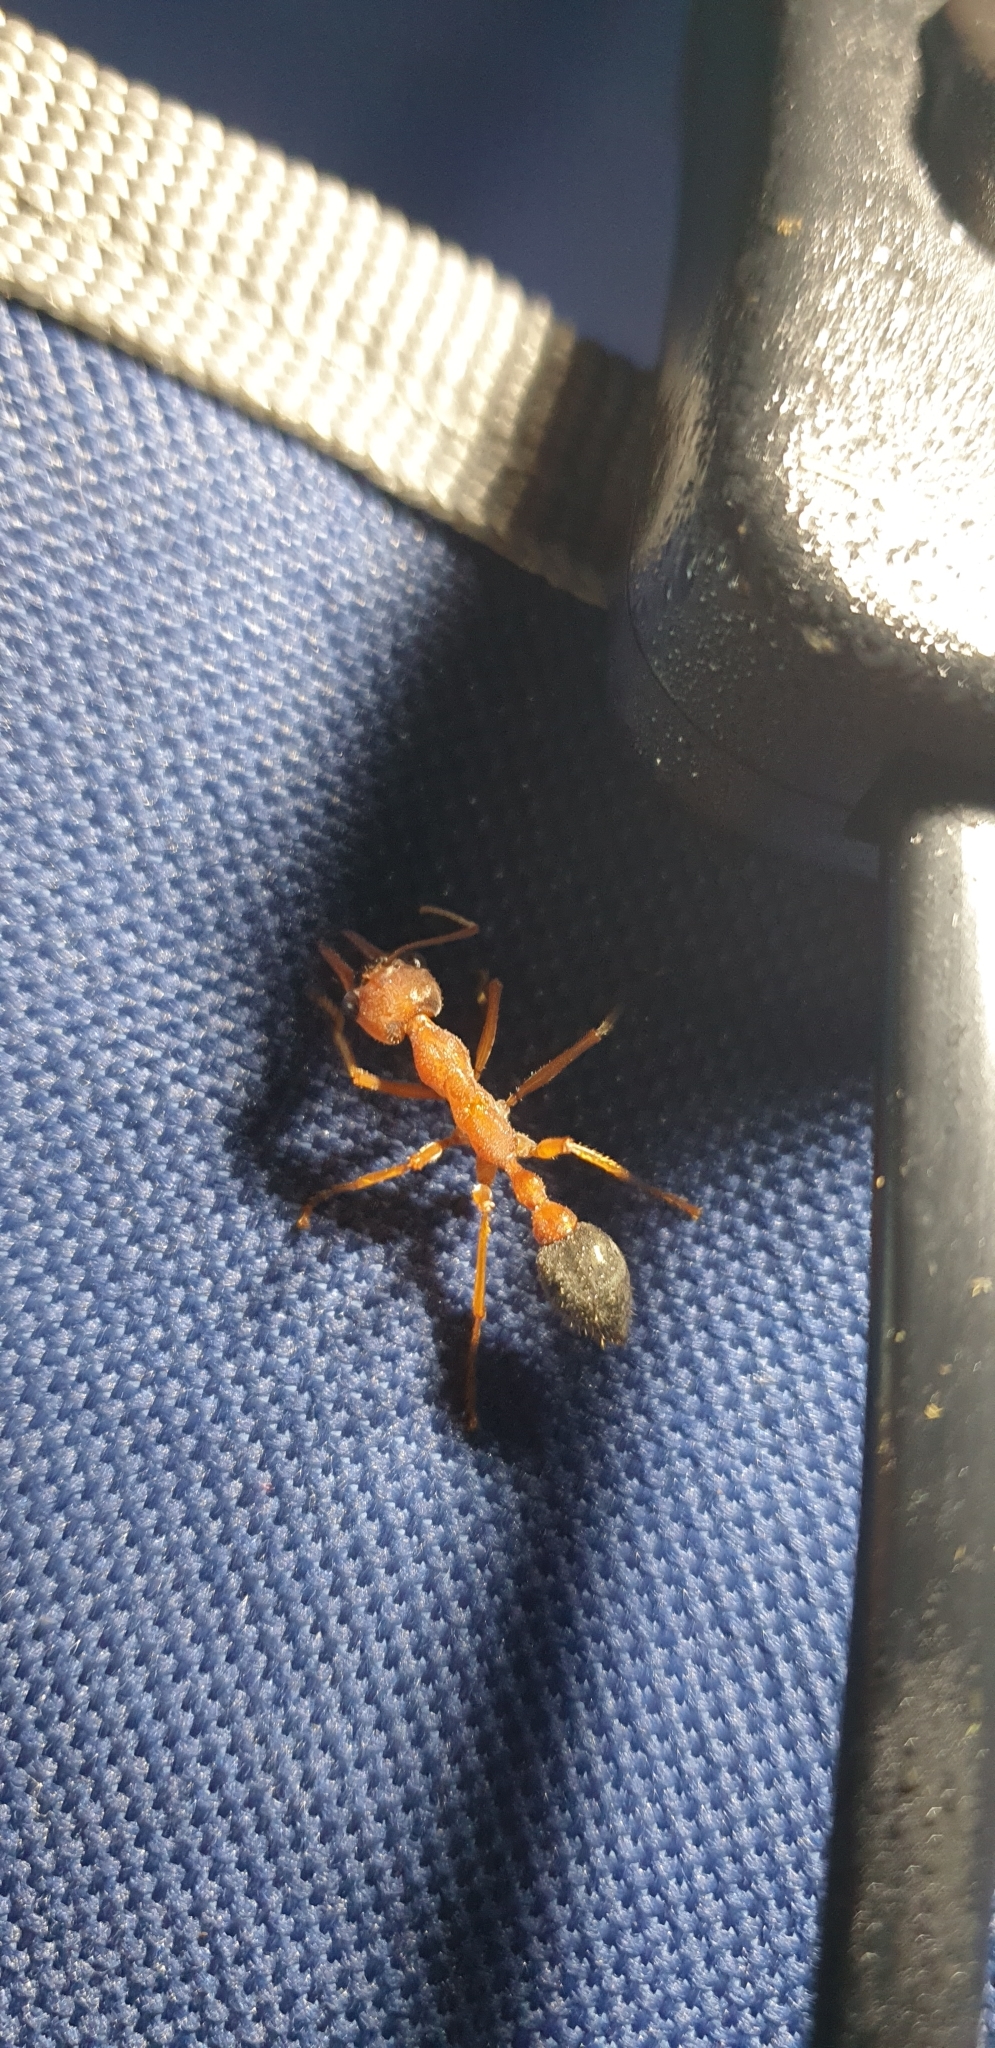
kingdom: Animalia
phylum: Arthropoda
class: Insecta
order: Hymenoptera
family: Formicidae
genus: Myrmecia
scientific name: Myrmecia brevinoda
